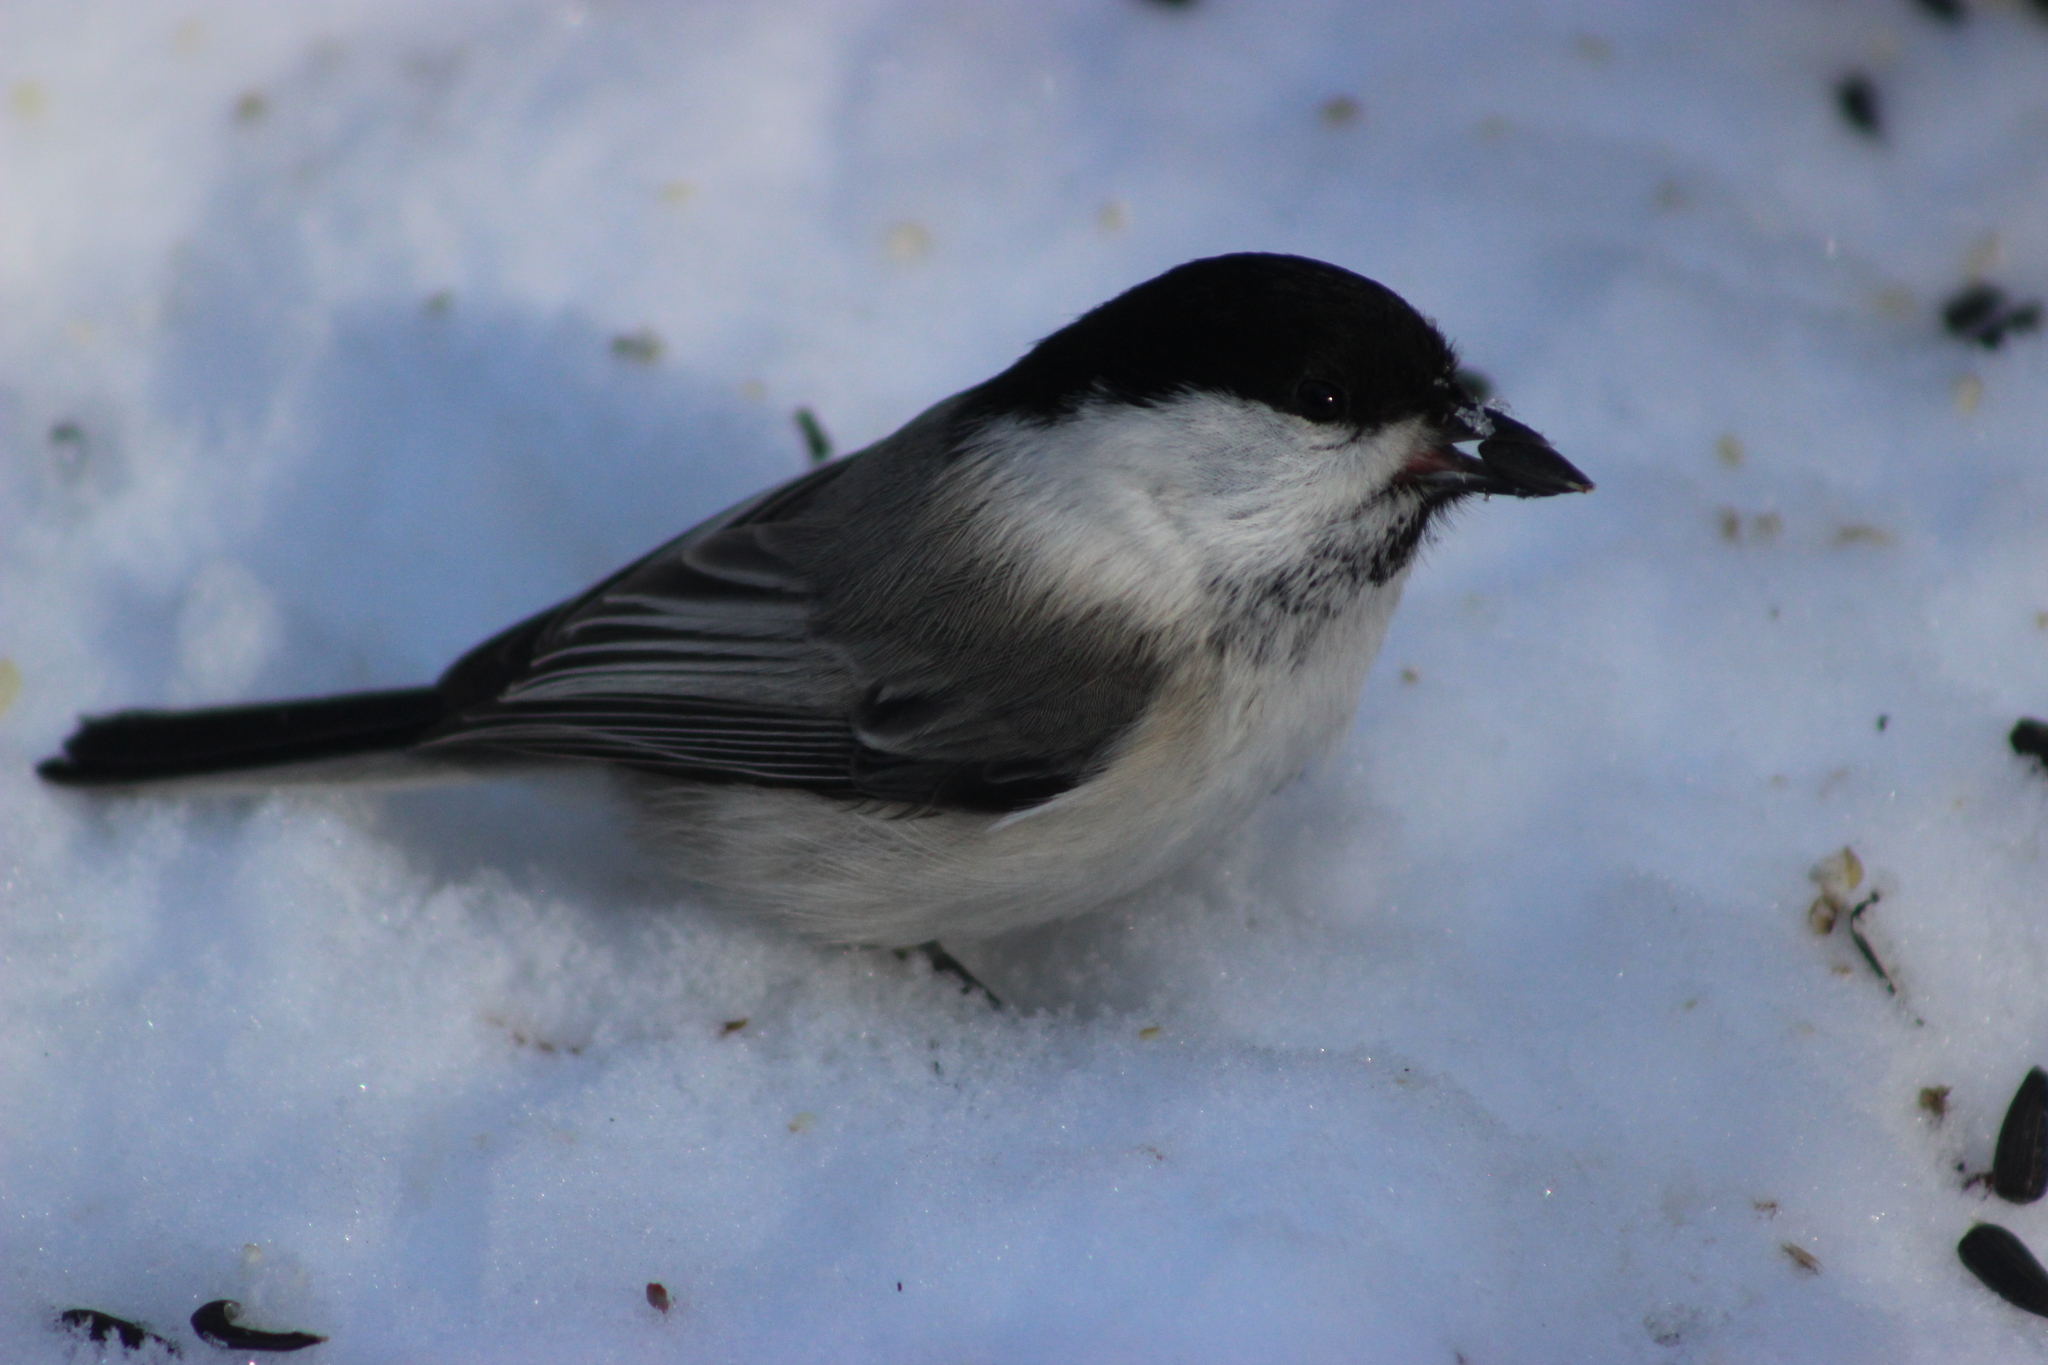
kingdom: Animalia
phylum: Chordata
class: Aves
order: Passeriformes
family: Paridae
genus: Poecile
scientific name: Poecile montanus
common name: Willow tit
